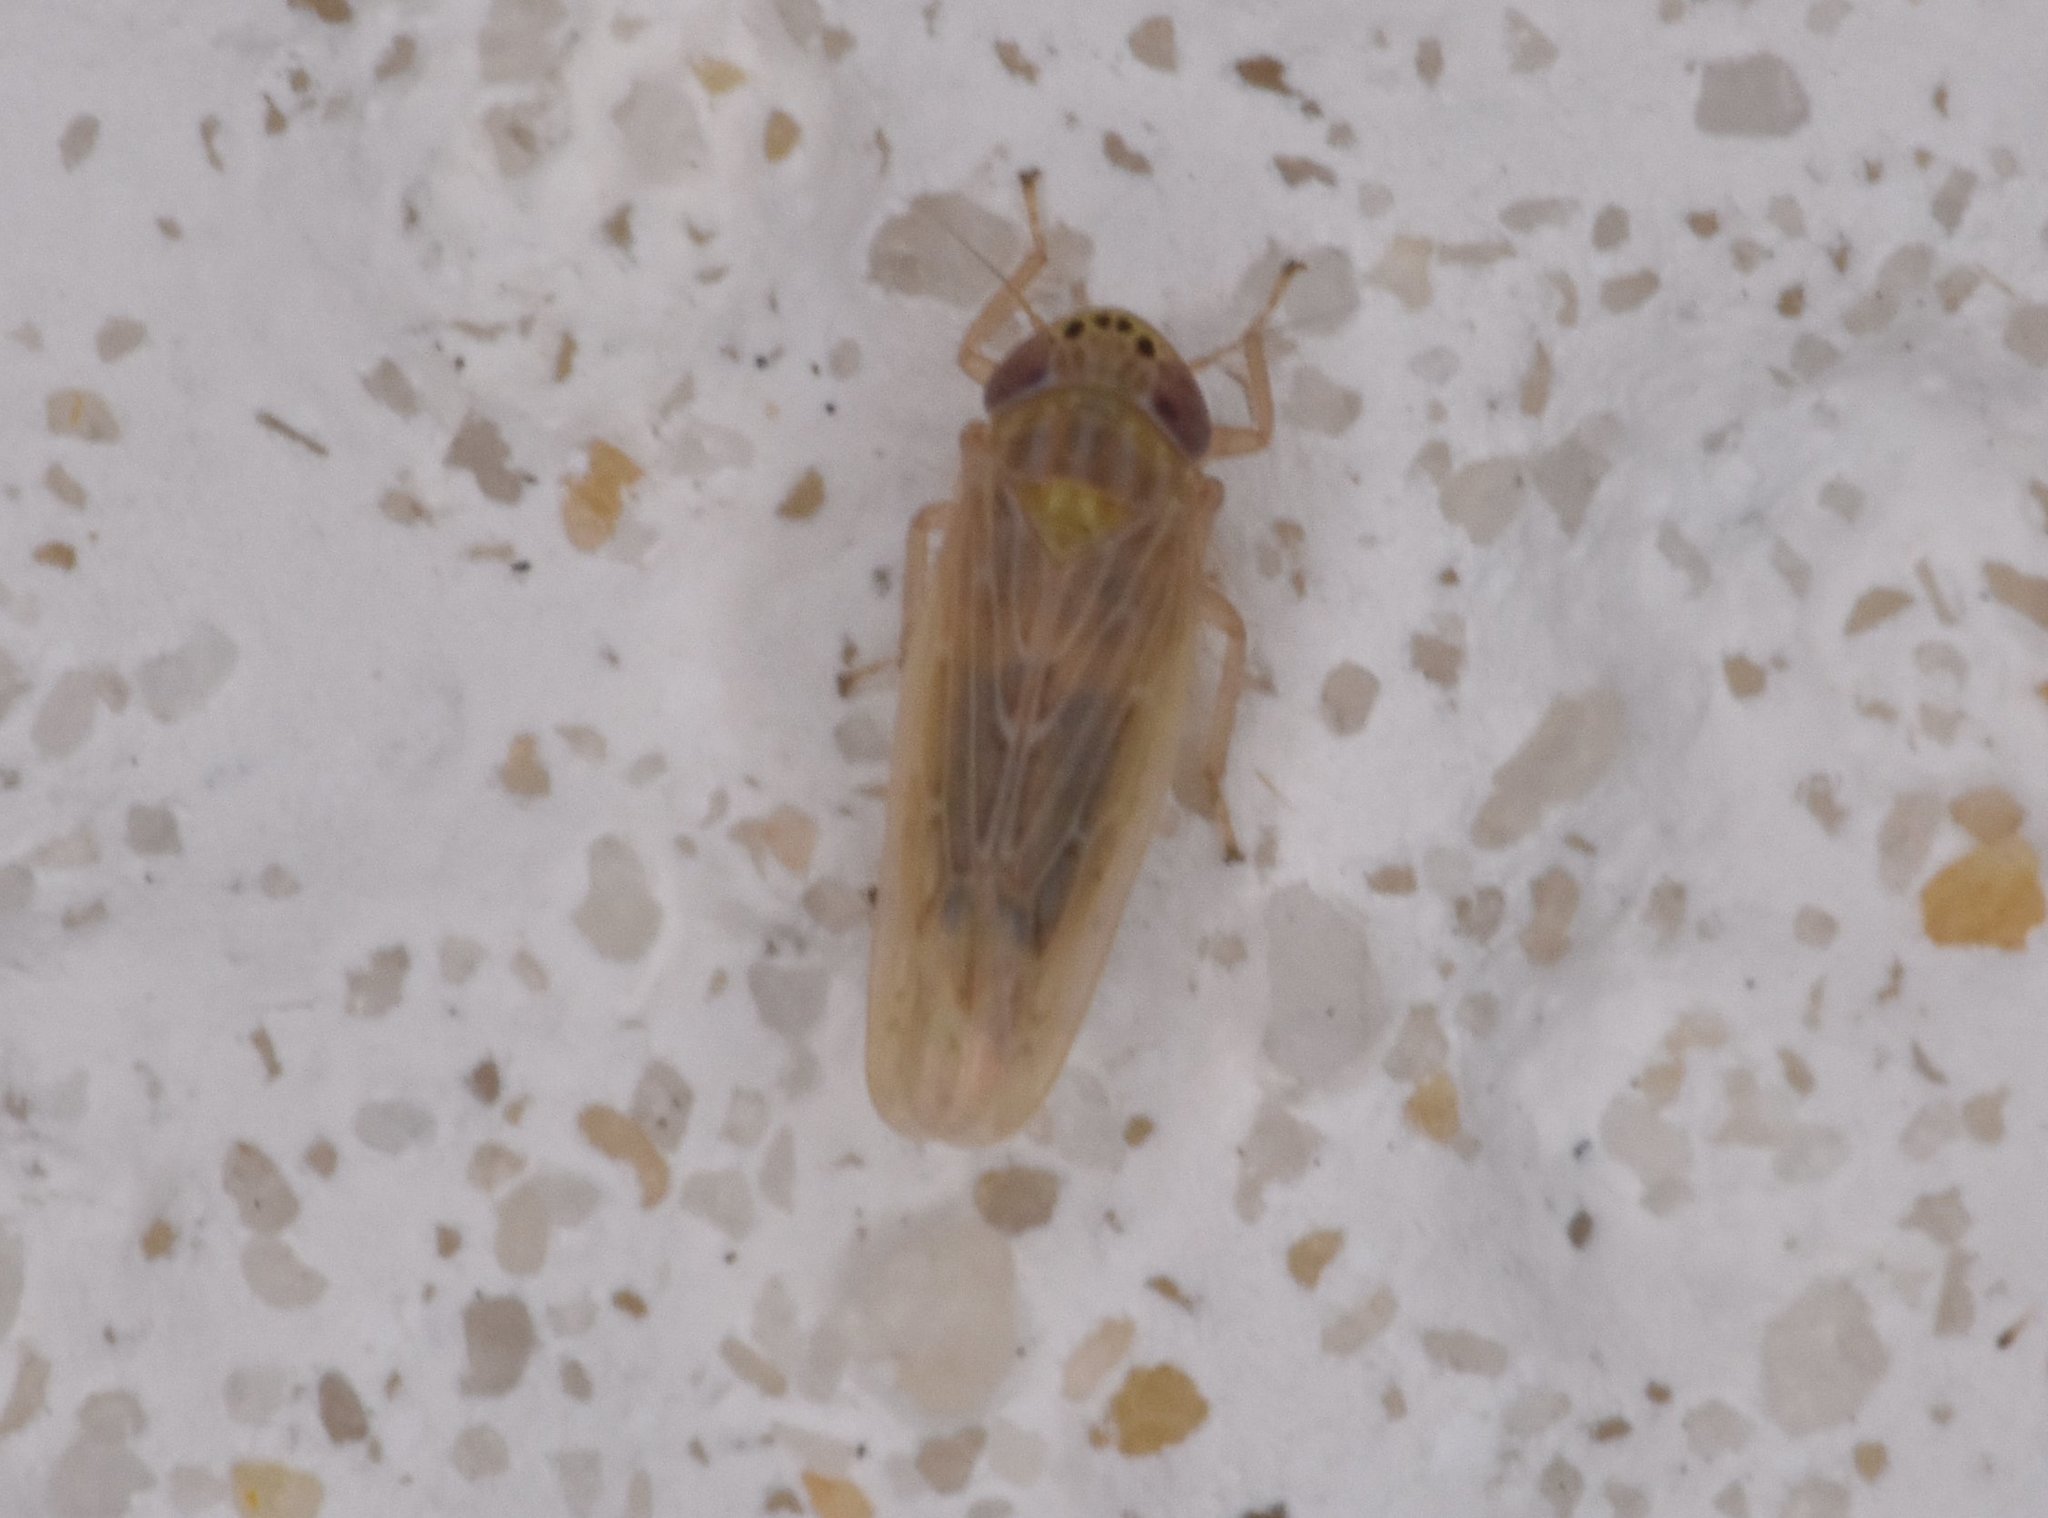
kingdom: Animalia
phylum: Arthropoda
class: Insecta
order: Hemiptera
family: Cicadellidae
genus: Graminella
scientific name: Graminella sonora
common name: Lesser lawn leafhopper
